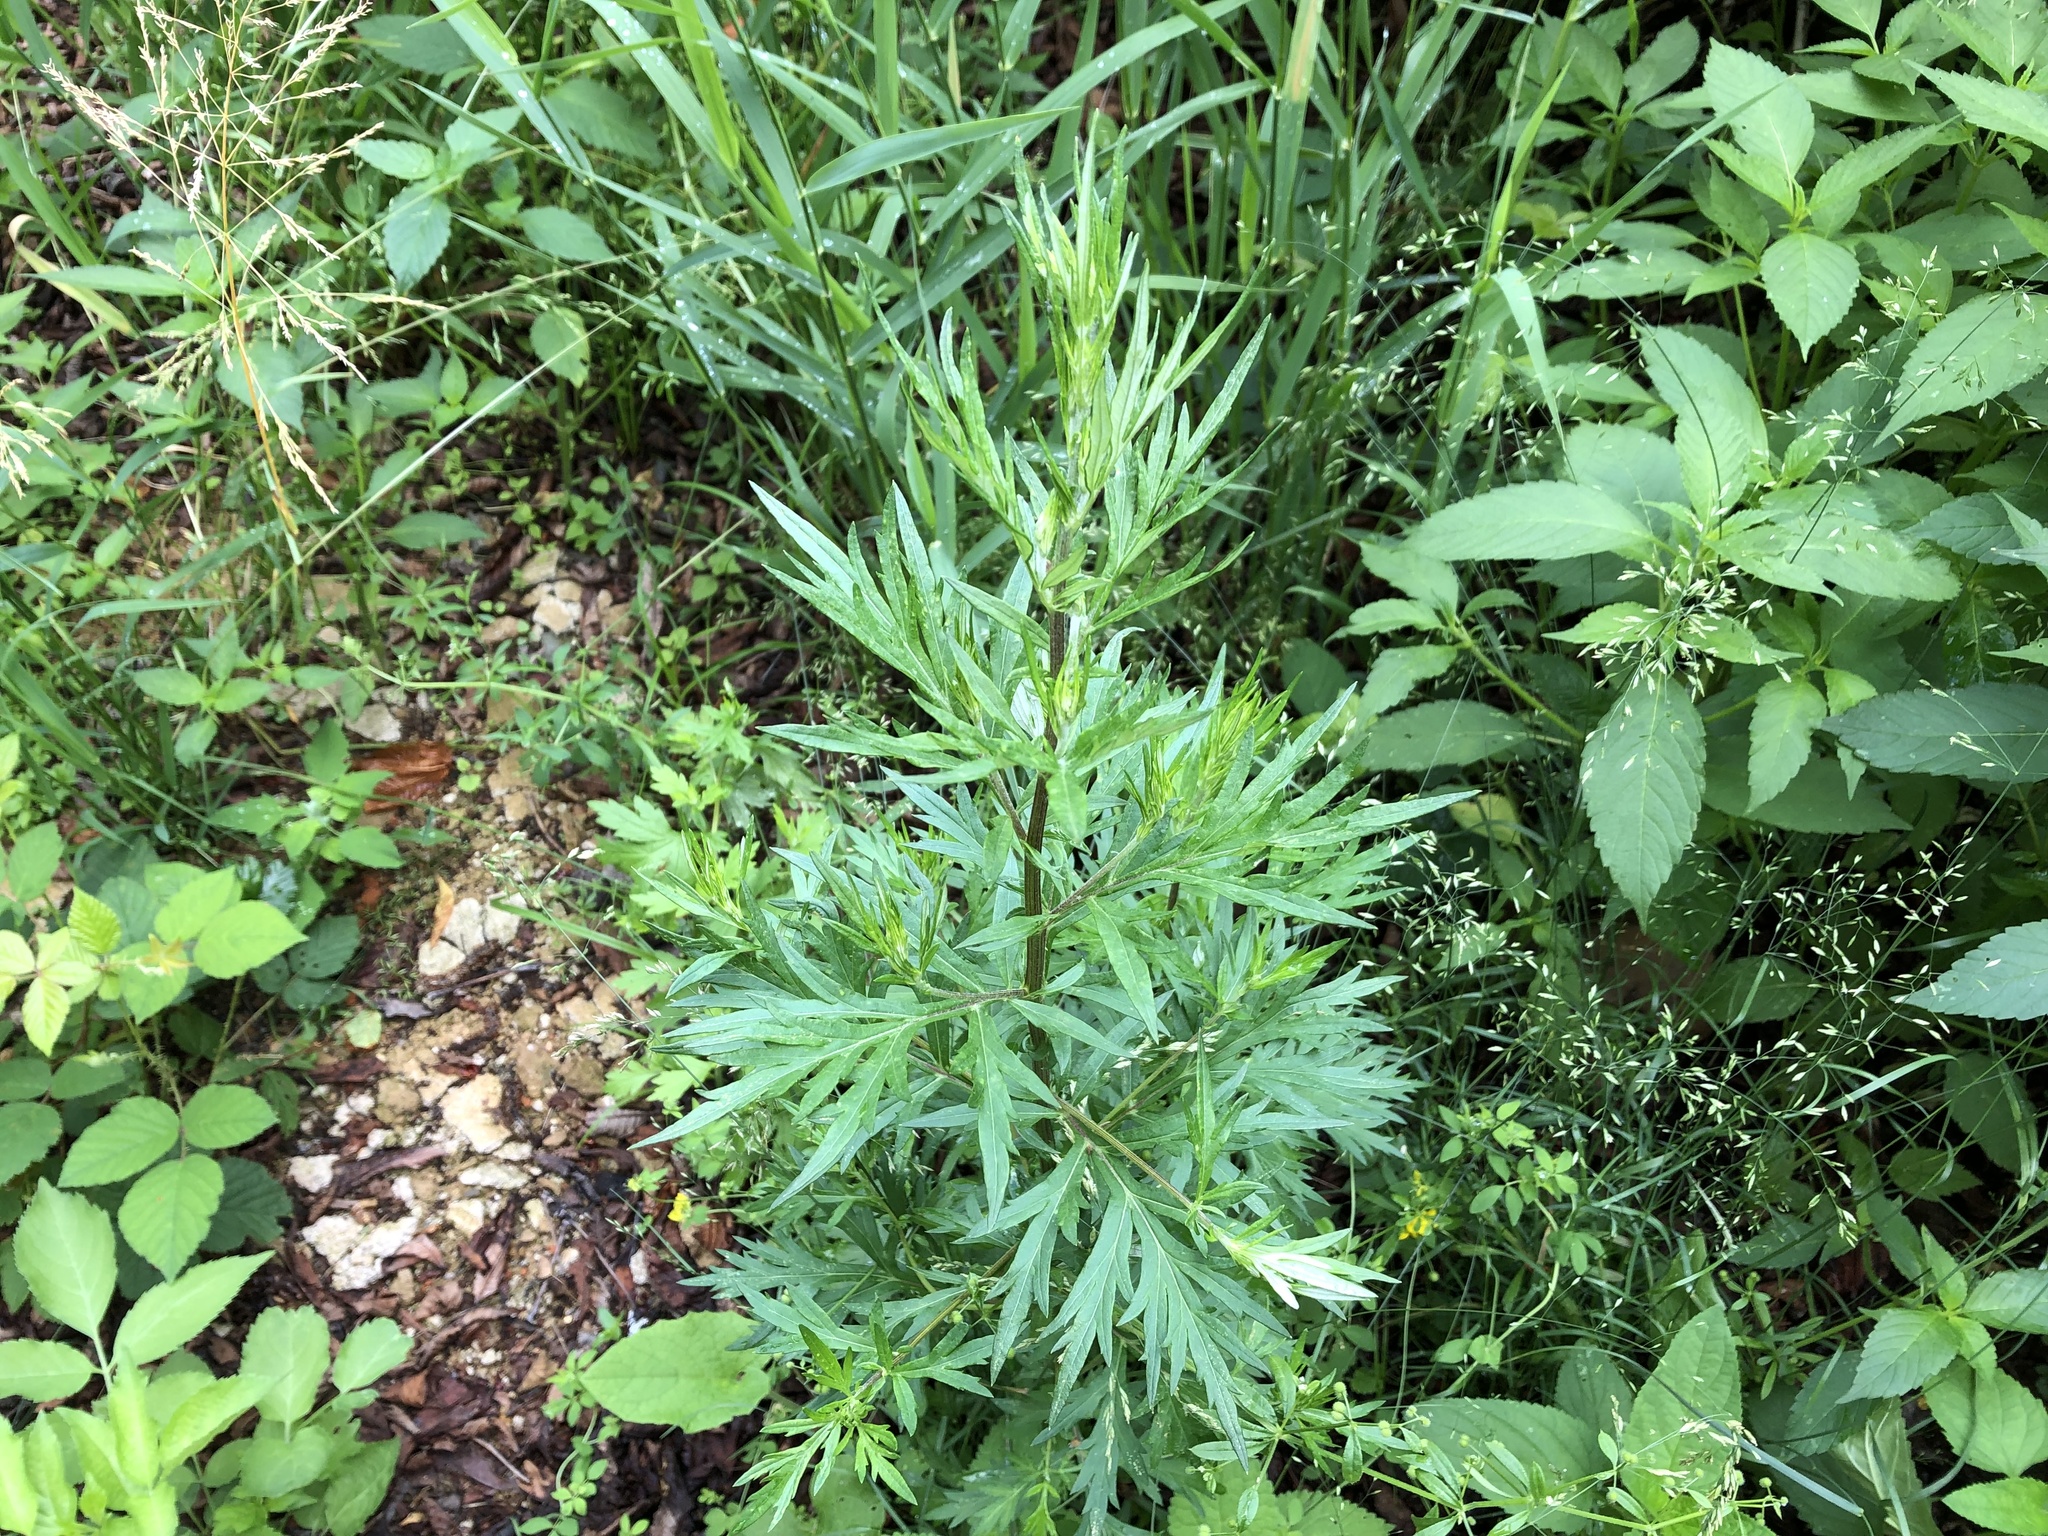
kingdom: Plantae
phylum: Tracheophyta
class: Magnoliopsida
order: Asterales
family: Asteraceae
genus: Artemisia
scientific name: Artemisia vulgaris
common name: Mugwort
